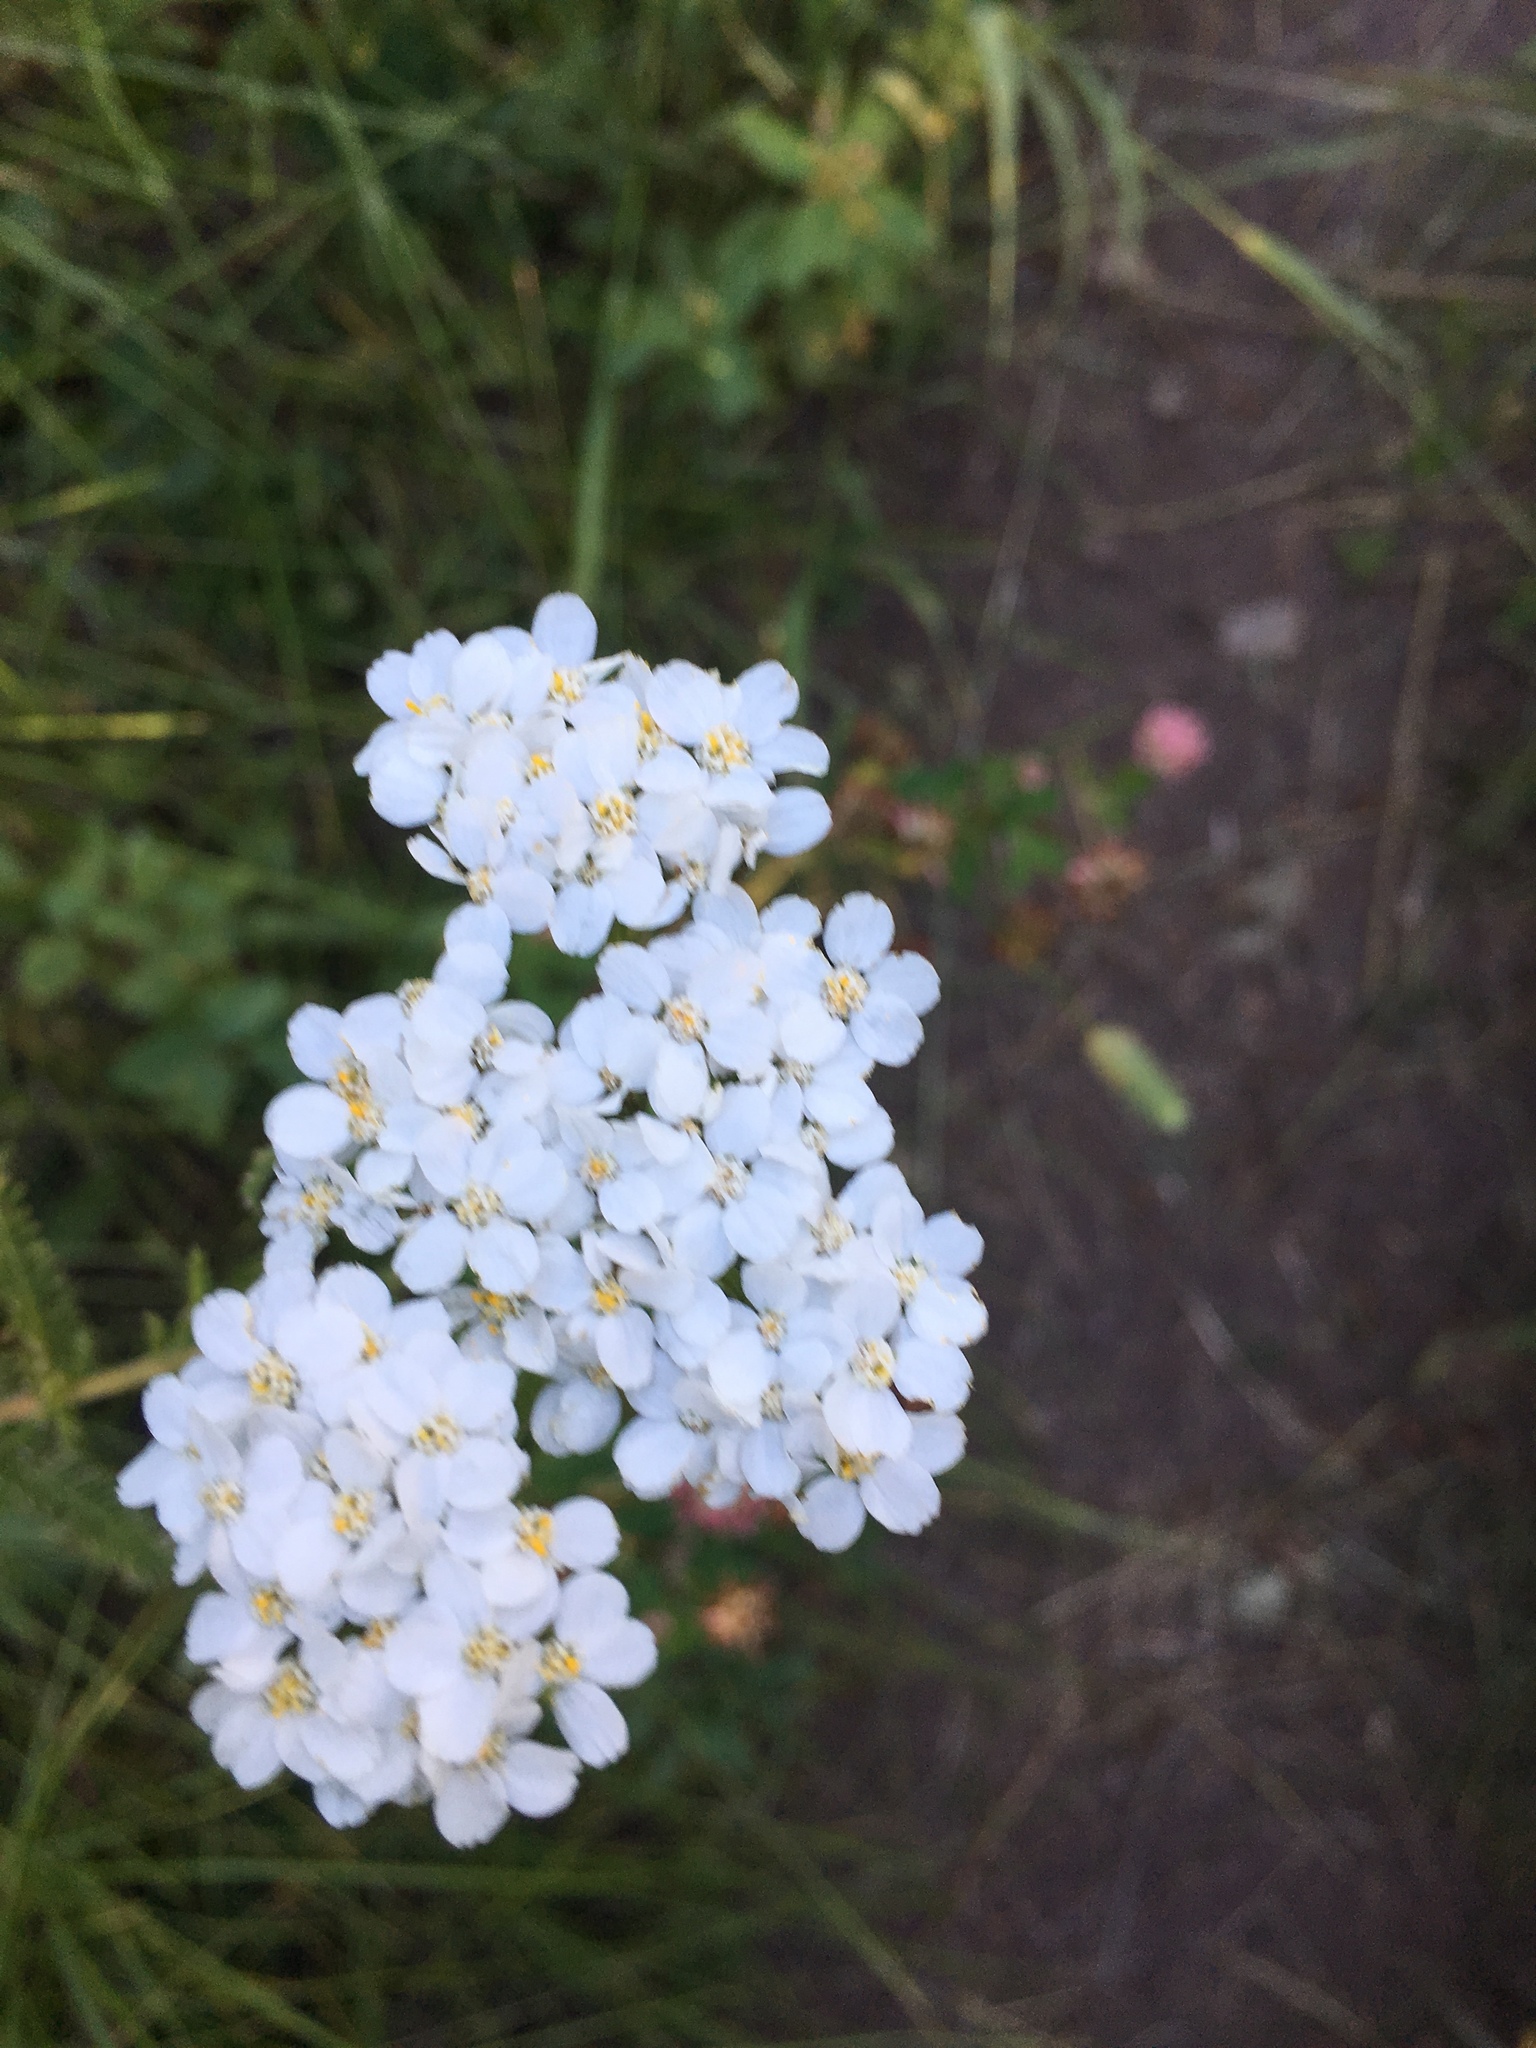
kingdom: Plantae
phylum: Tracheophyta
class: Magnoliopsida
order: Asterales
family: Asteraceae
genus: Achillea
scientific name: Achillea millefolium
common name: Yarrow
